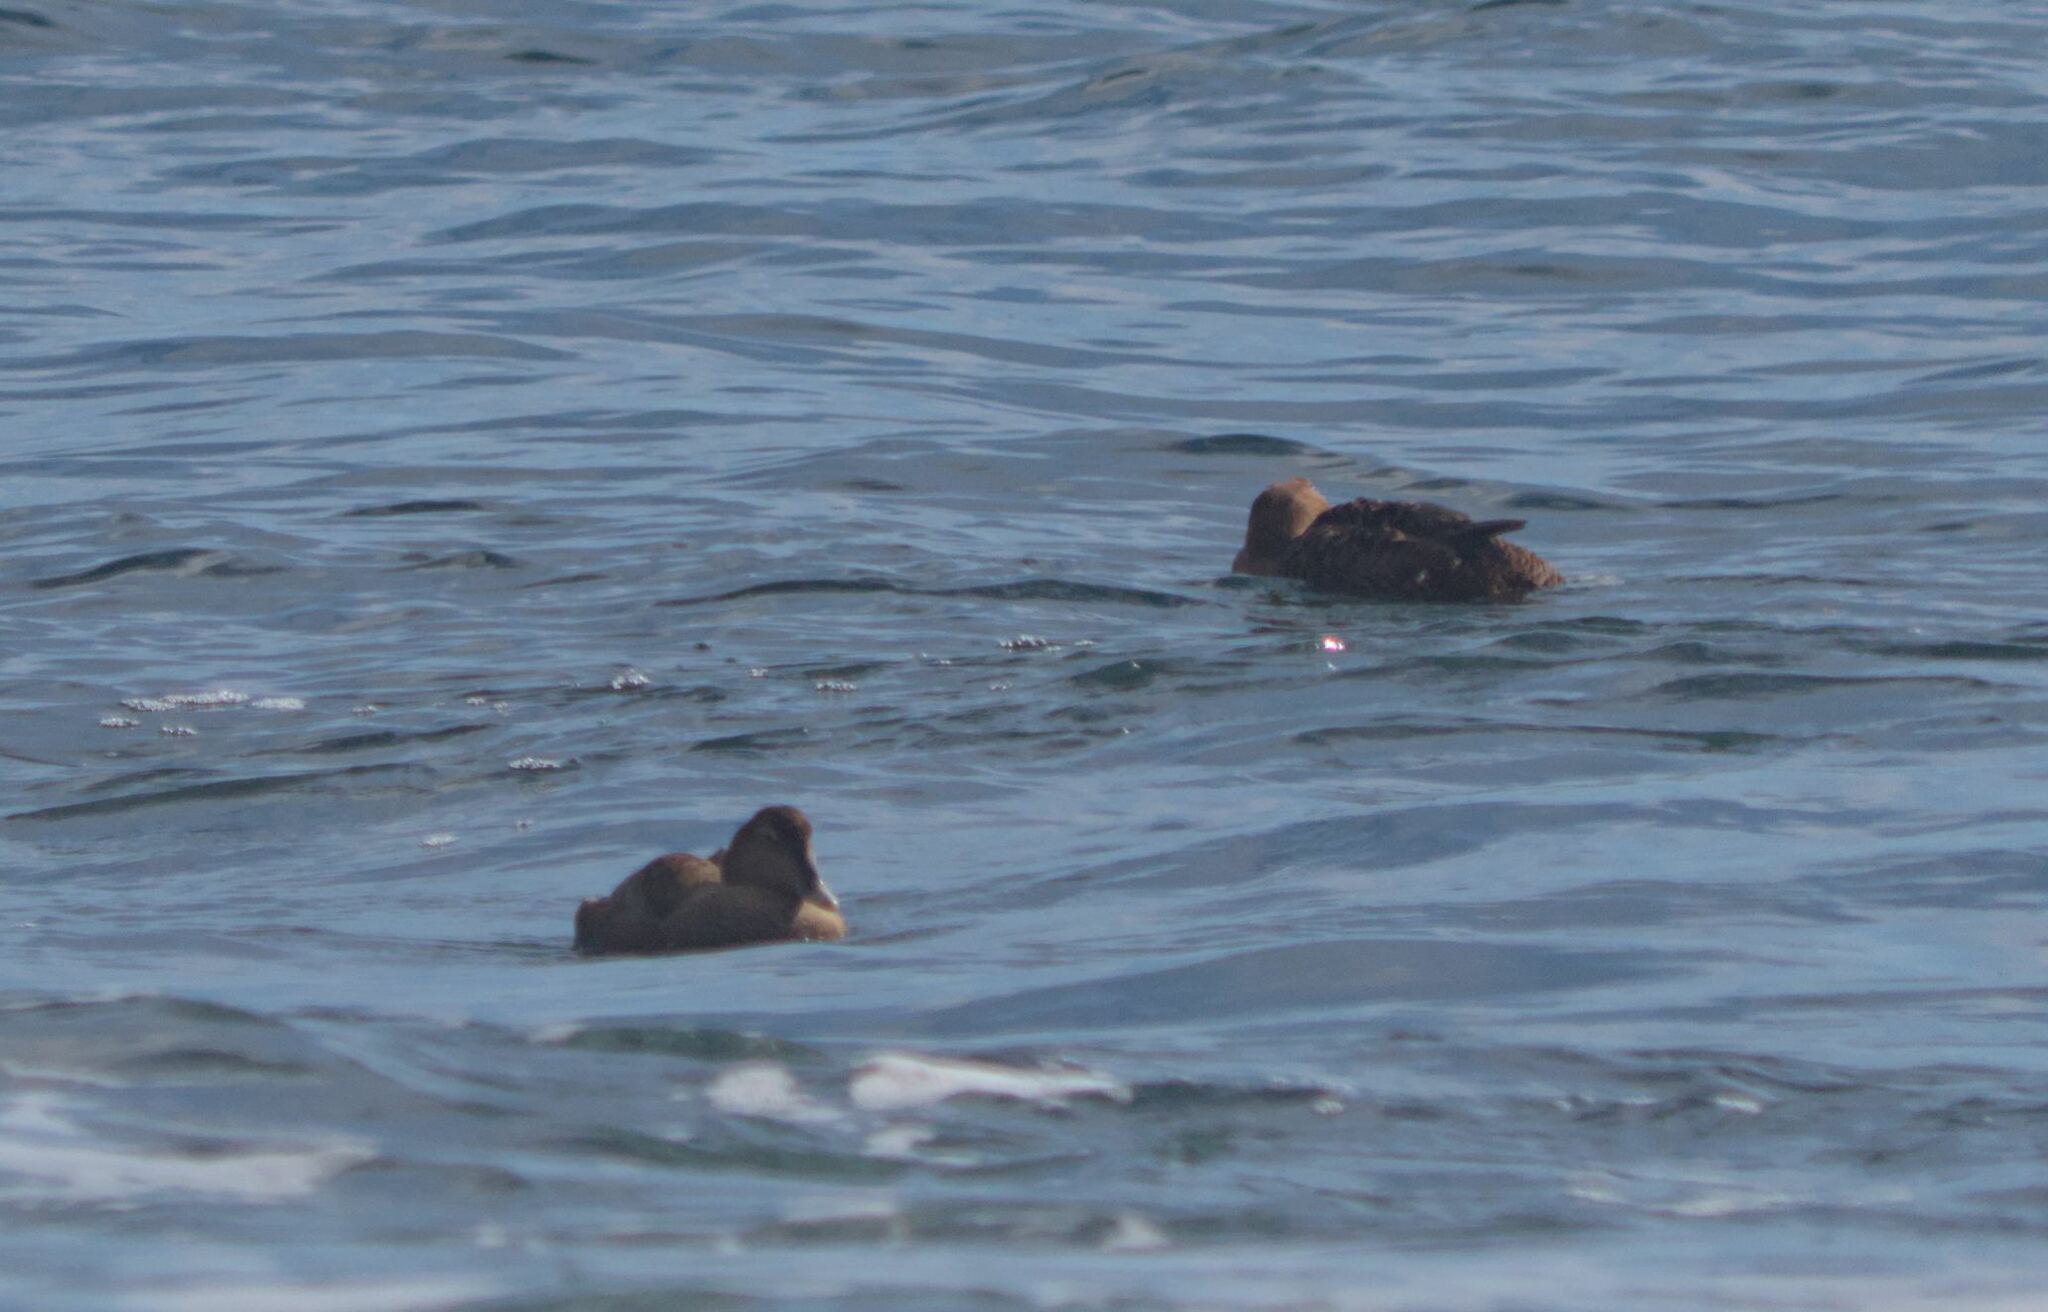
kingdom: Animalia
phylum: Chordata
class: Aves
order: Anseriformes
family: Anatidae
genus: Somateria
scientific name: Somateria mollissima
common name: Common eider
